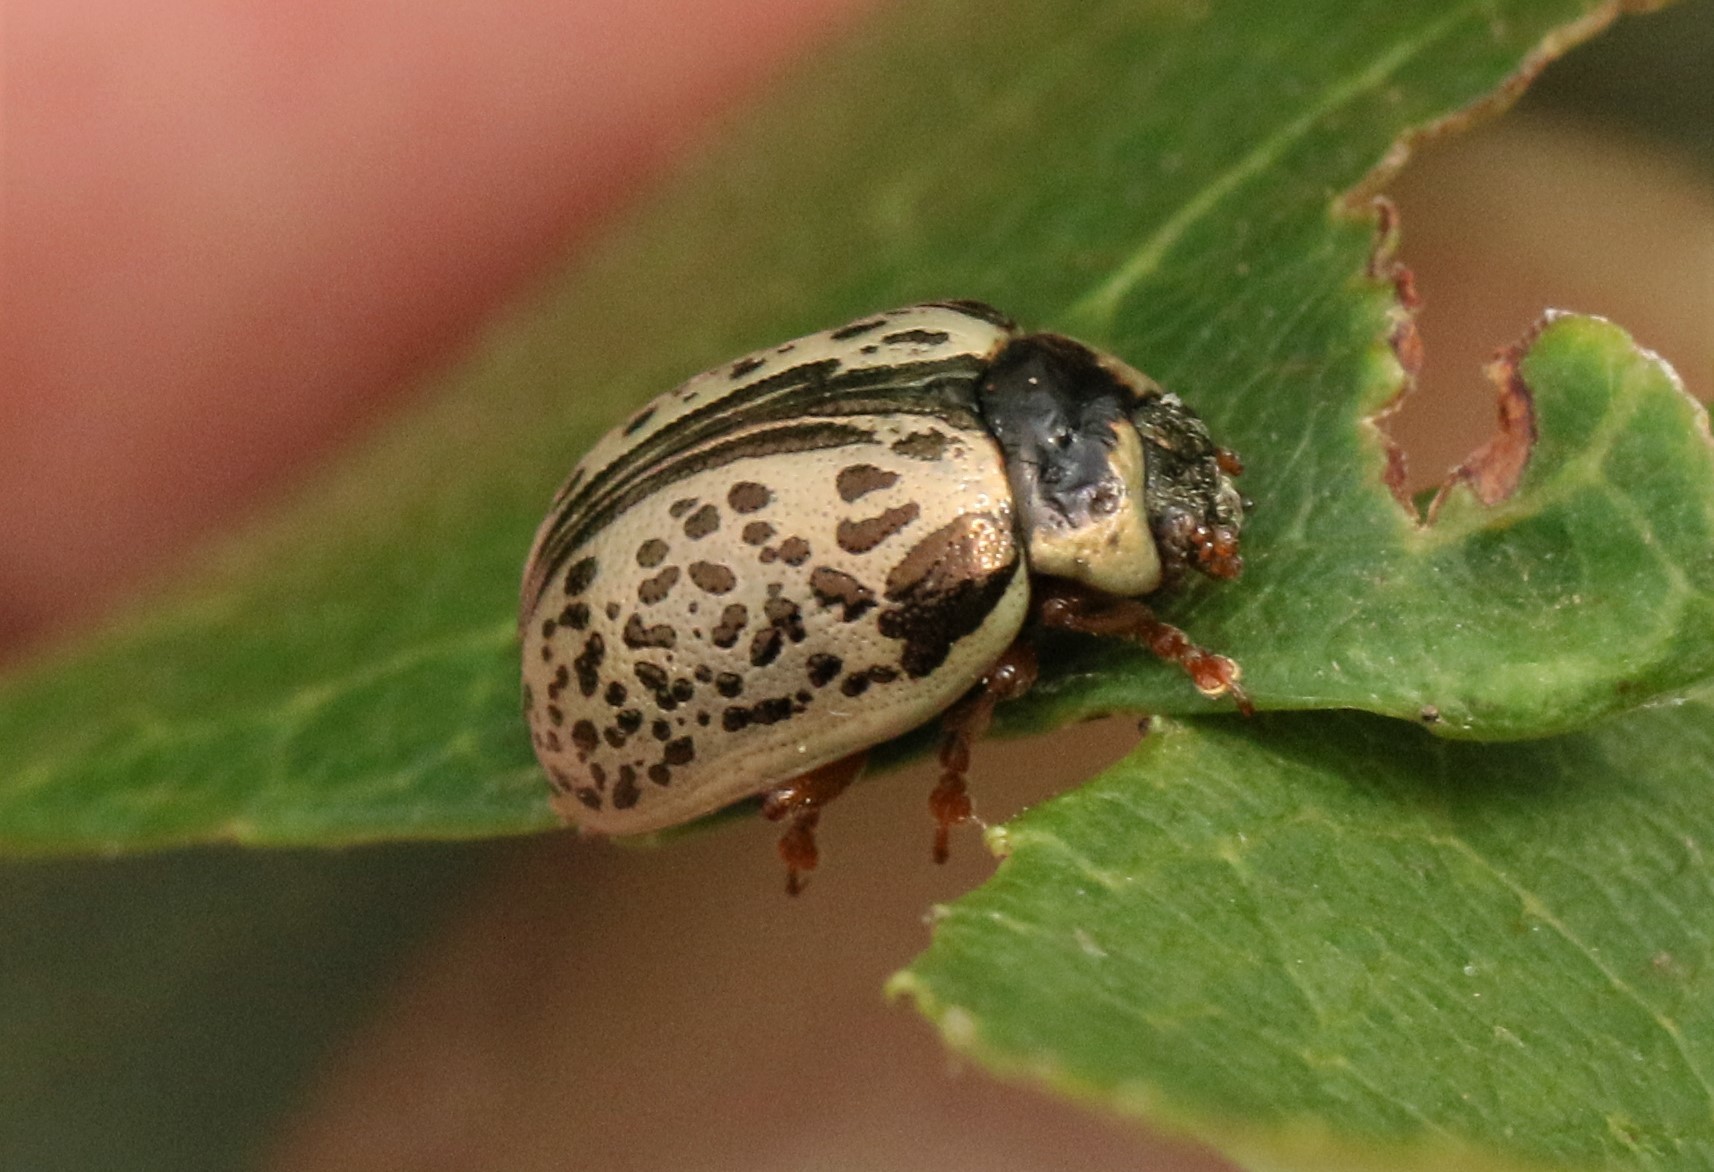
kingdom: Animalia
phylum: Arthropoda
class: Insecta
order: Coleoptera
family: Chrysomelidae
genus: Calligrapha
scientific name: Calligrapha multipunctata
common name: Common willow calligrapher beetle
